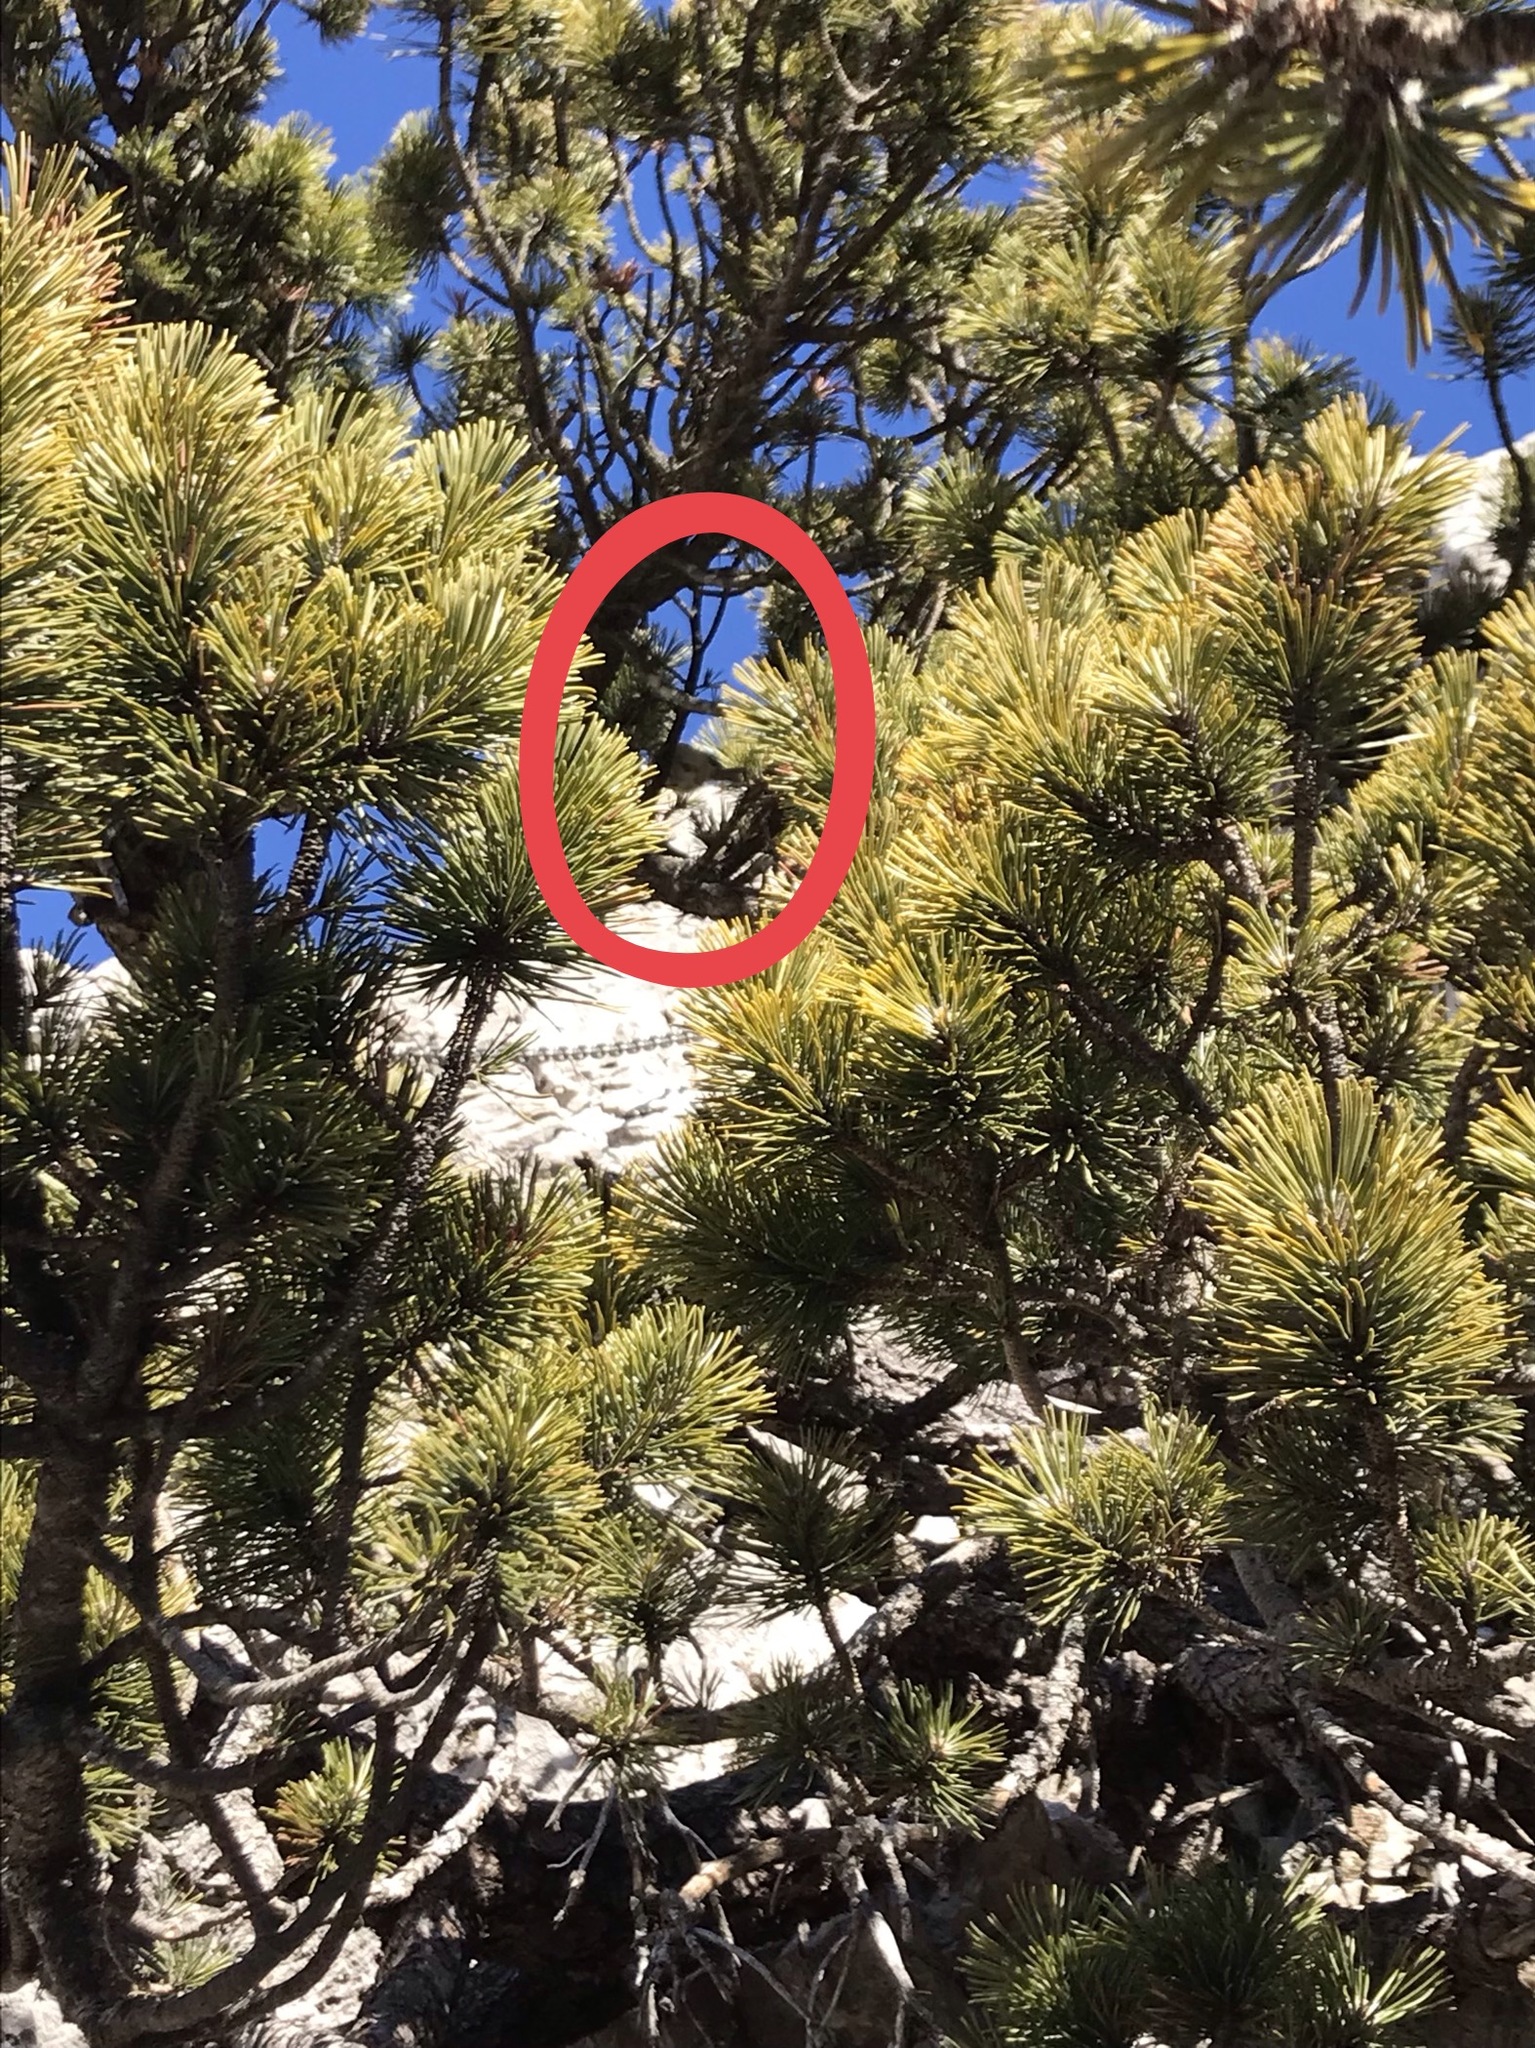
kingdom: Animalia
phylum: Chordata
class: Aves
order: Passeriformes
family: Regulidae
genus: Regulus
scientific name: Regulus regulus
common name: Goldcrest
